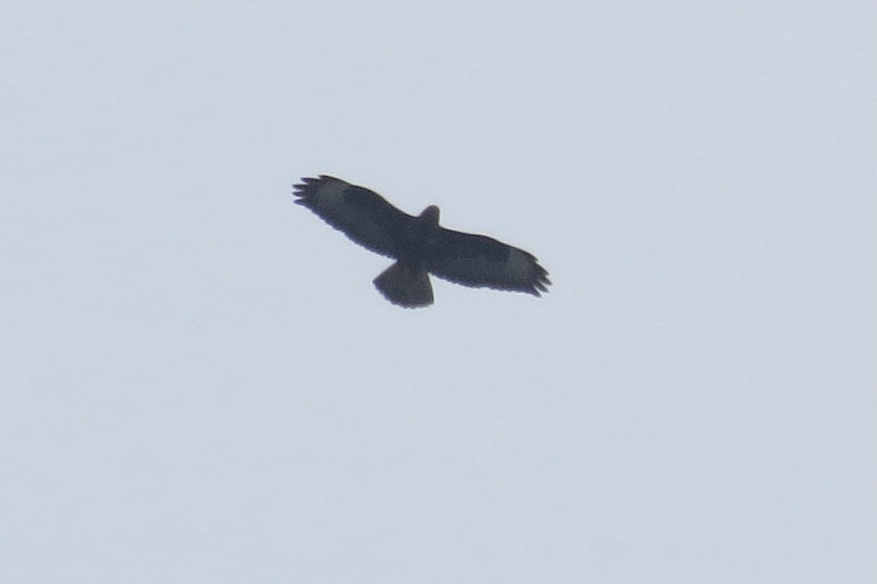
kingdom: Animalia
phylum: Chordata
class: Aves
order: Accipitriformes
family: Accipitridae
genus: Buteo
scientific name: Buteo buteo
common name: Common buzzard
